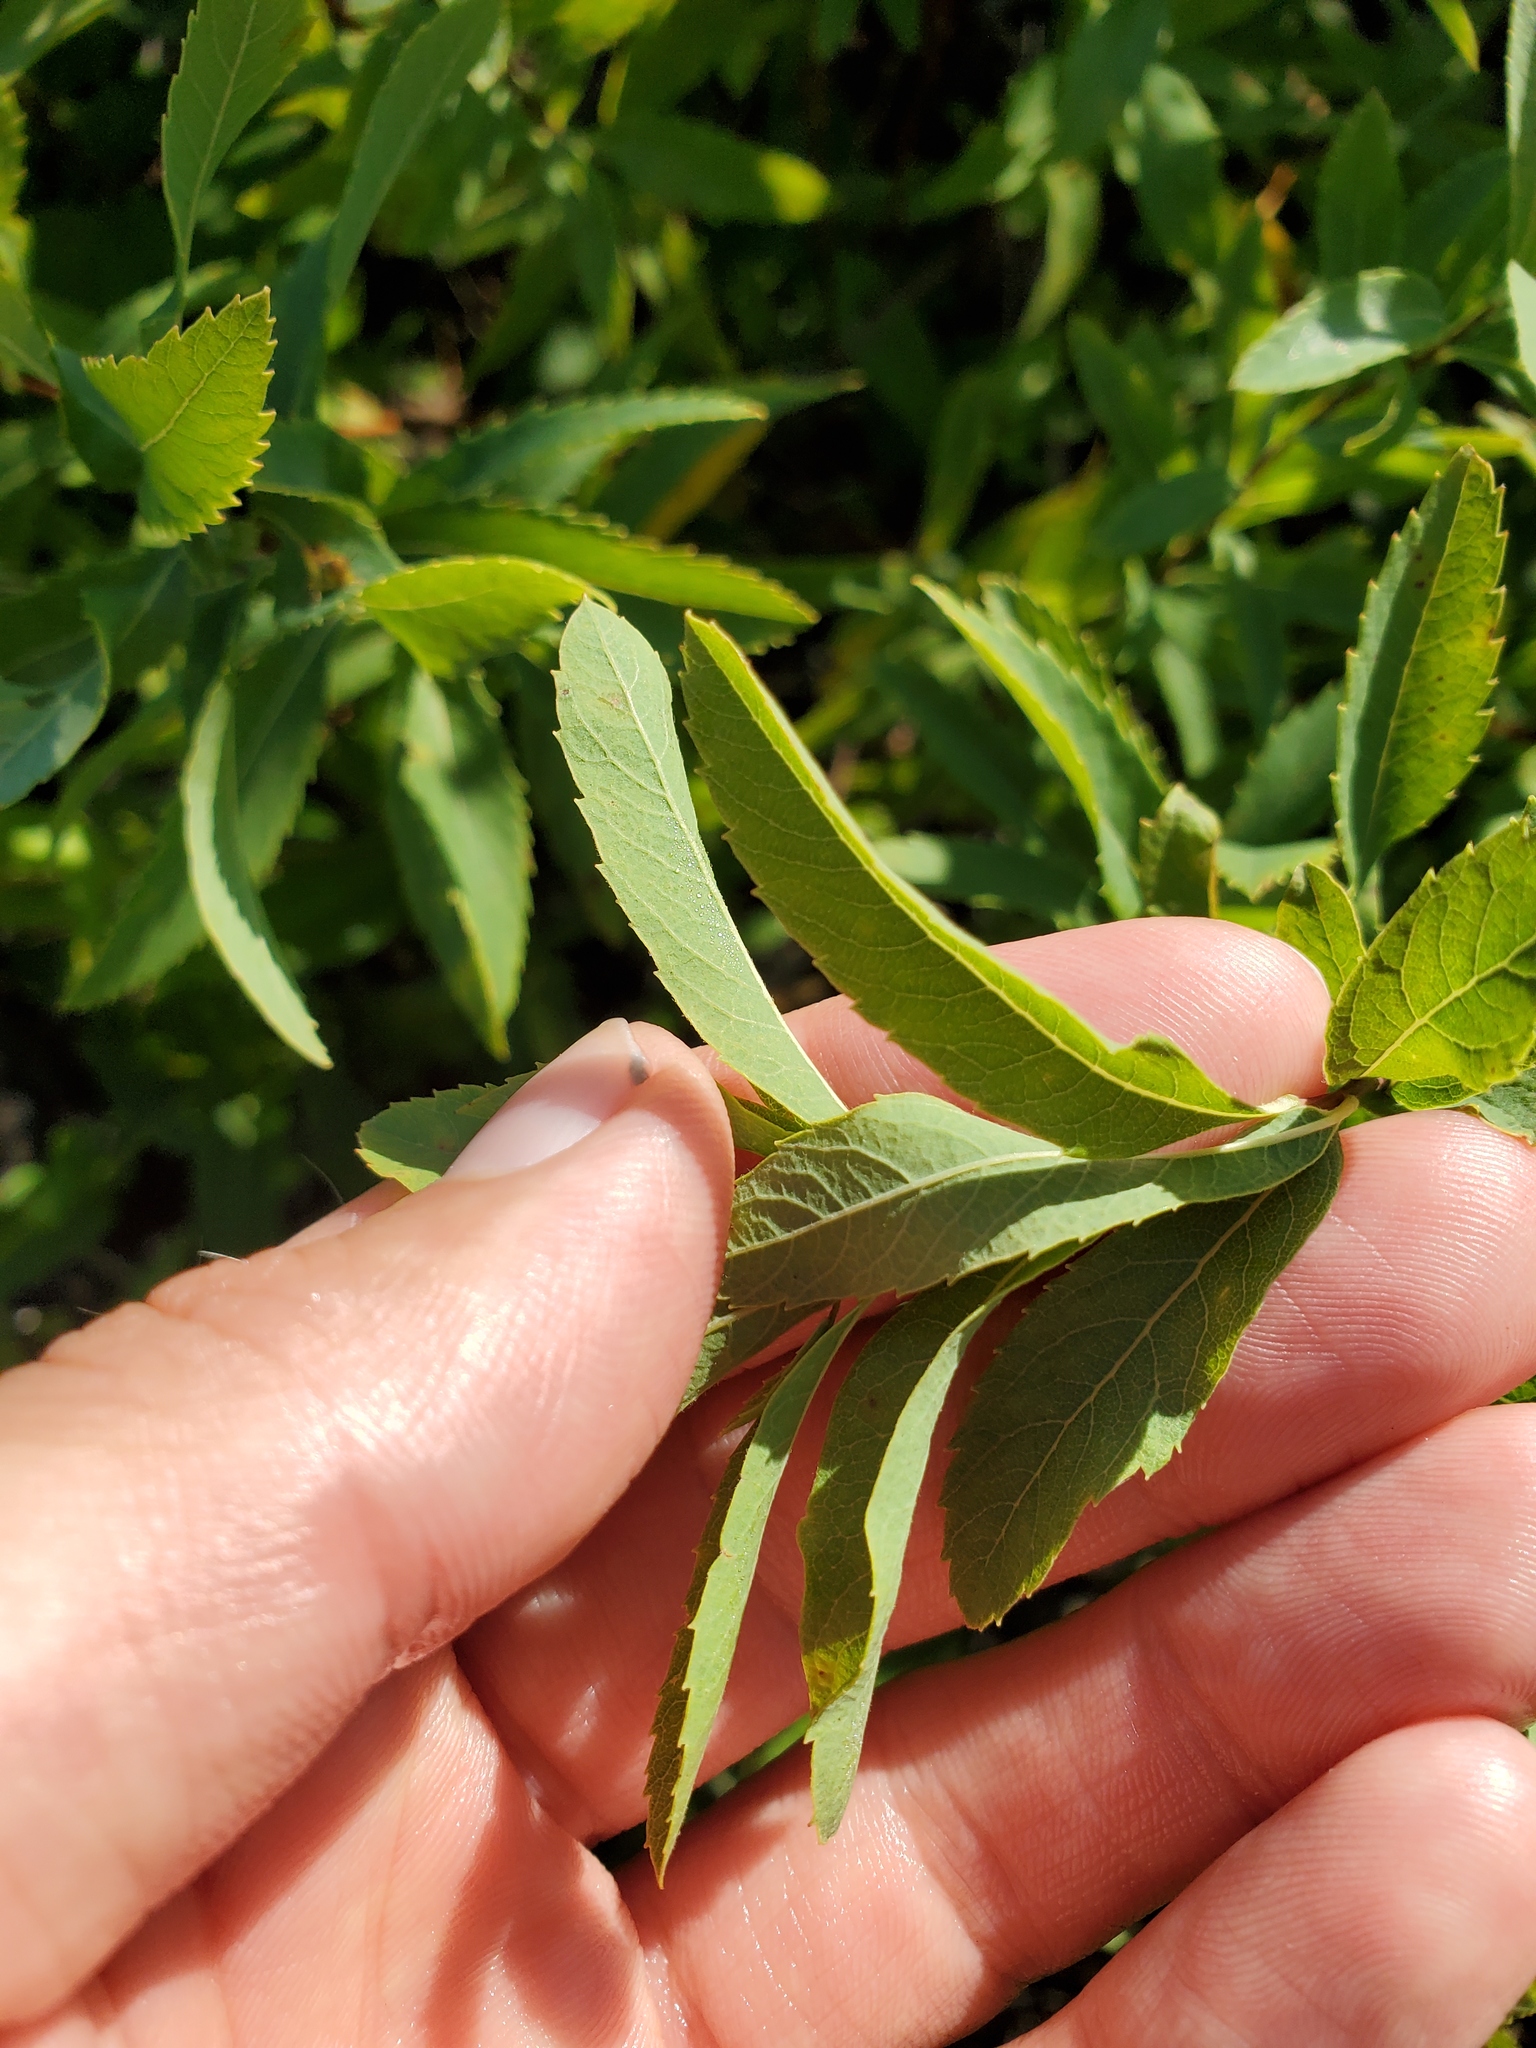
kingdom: Plantae
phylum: Tracheophyta
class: Magnoliopsida
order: Rosales
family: Rosaceae
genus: Spiraea
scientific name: Spiraea alba
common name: Pale bridewort
